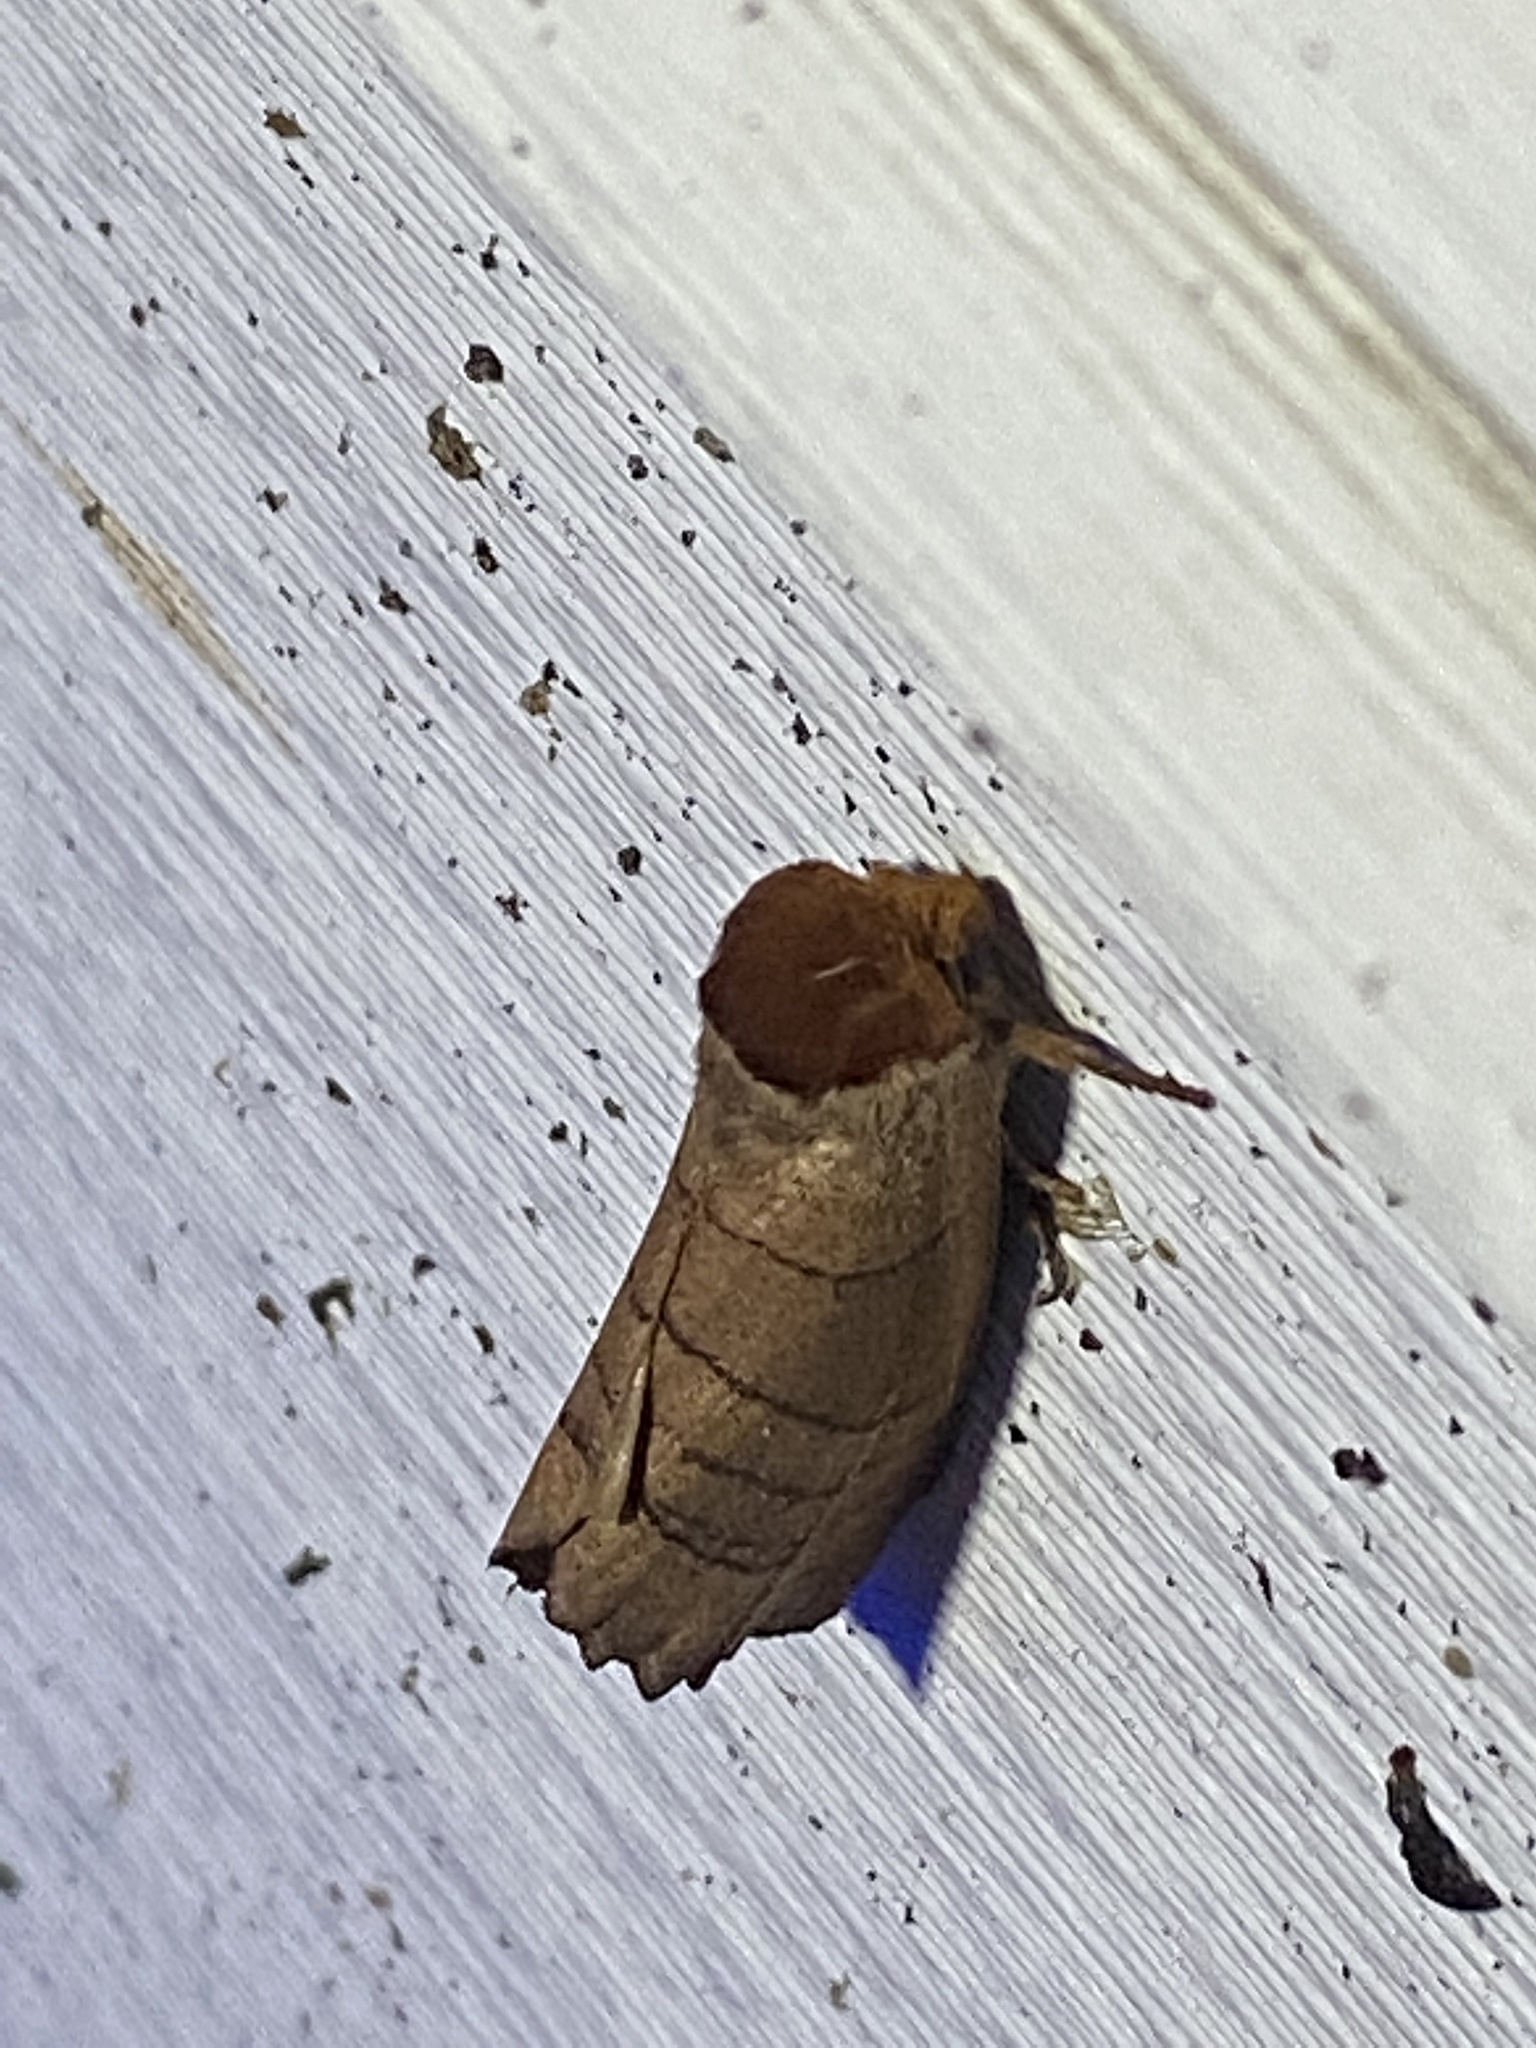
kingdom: Animalia
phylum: Arthropoda
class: Insecta
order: Lepidoptera
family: Notodontidae
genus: Datana
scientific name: Datana ministra
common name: Yellow-necked caterpillar moth
